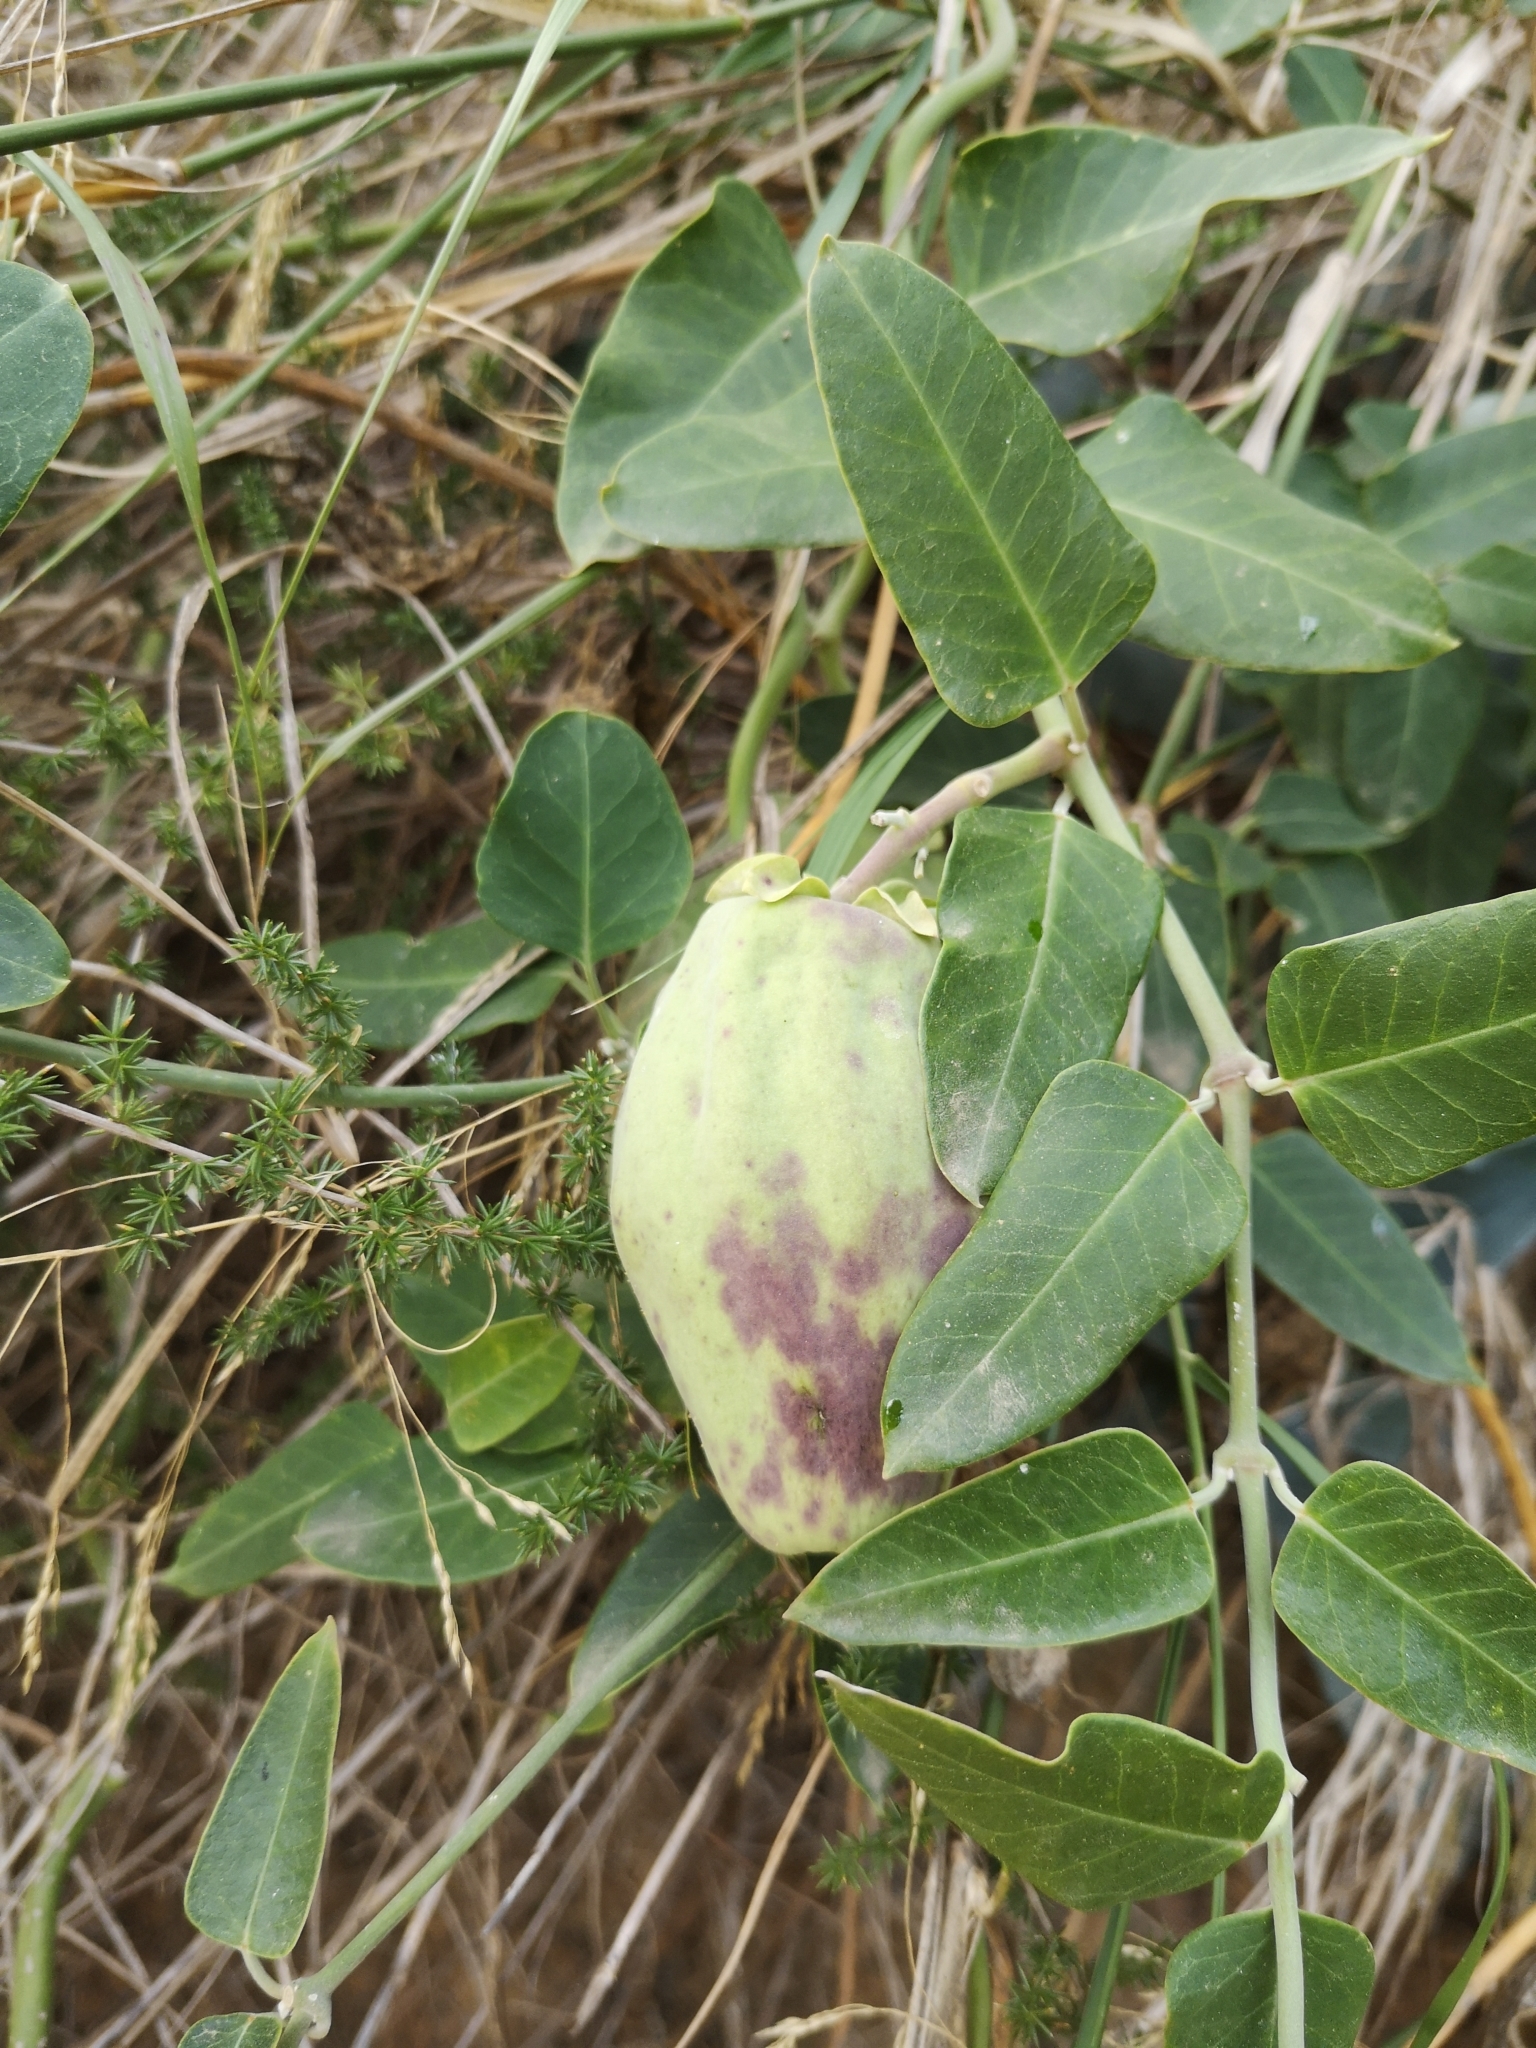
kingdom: Plantae
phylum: Tracheophyta
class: Magnoliopsida
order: Gentianales
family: Apocynaceae
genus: Araujia
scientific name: Araujia sericifera
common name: White bladderflower
